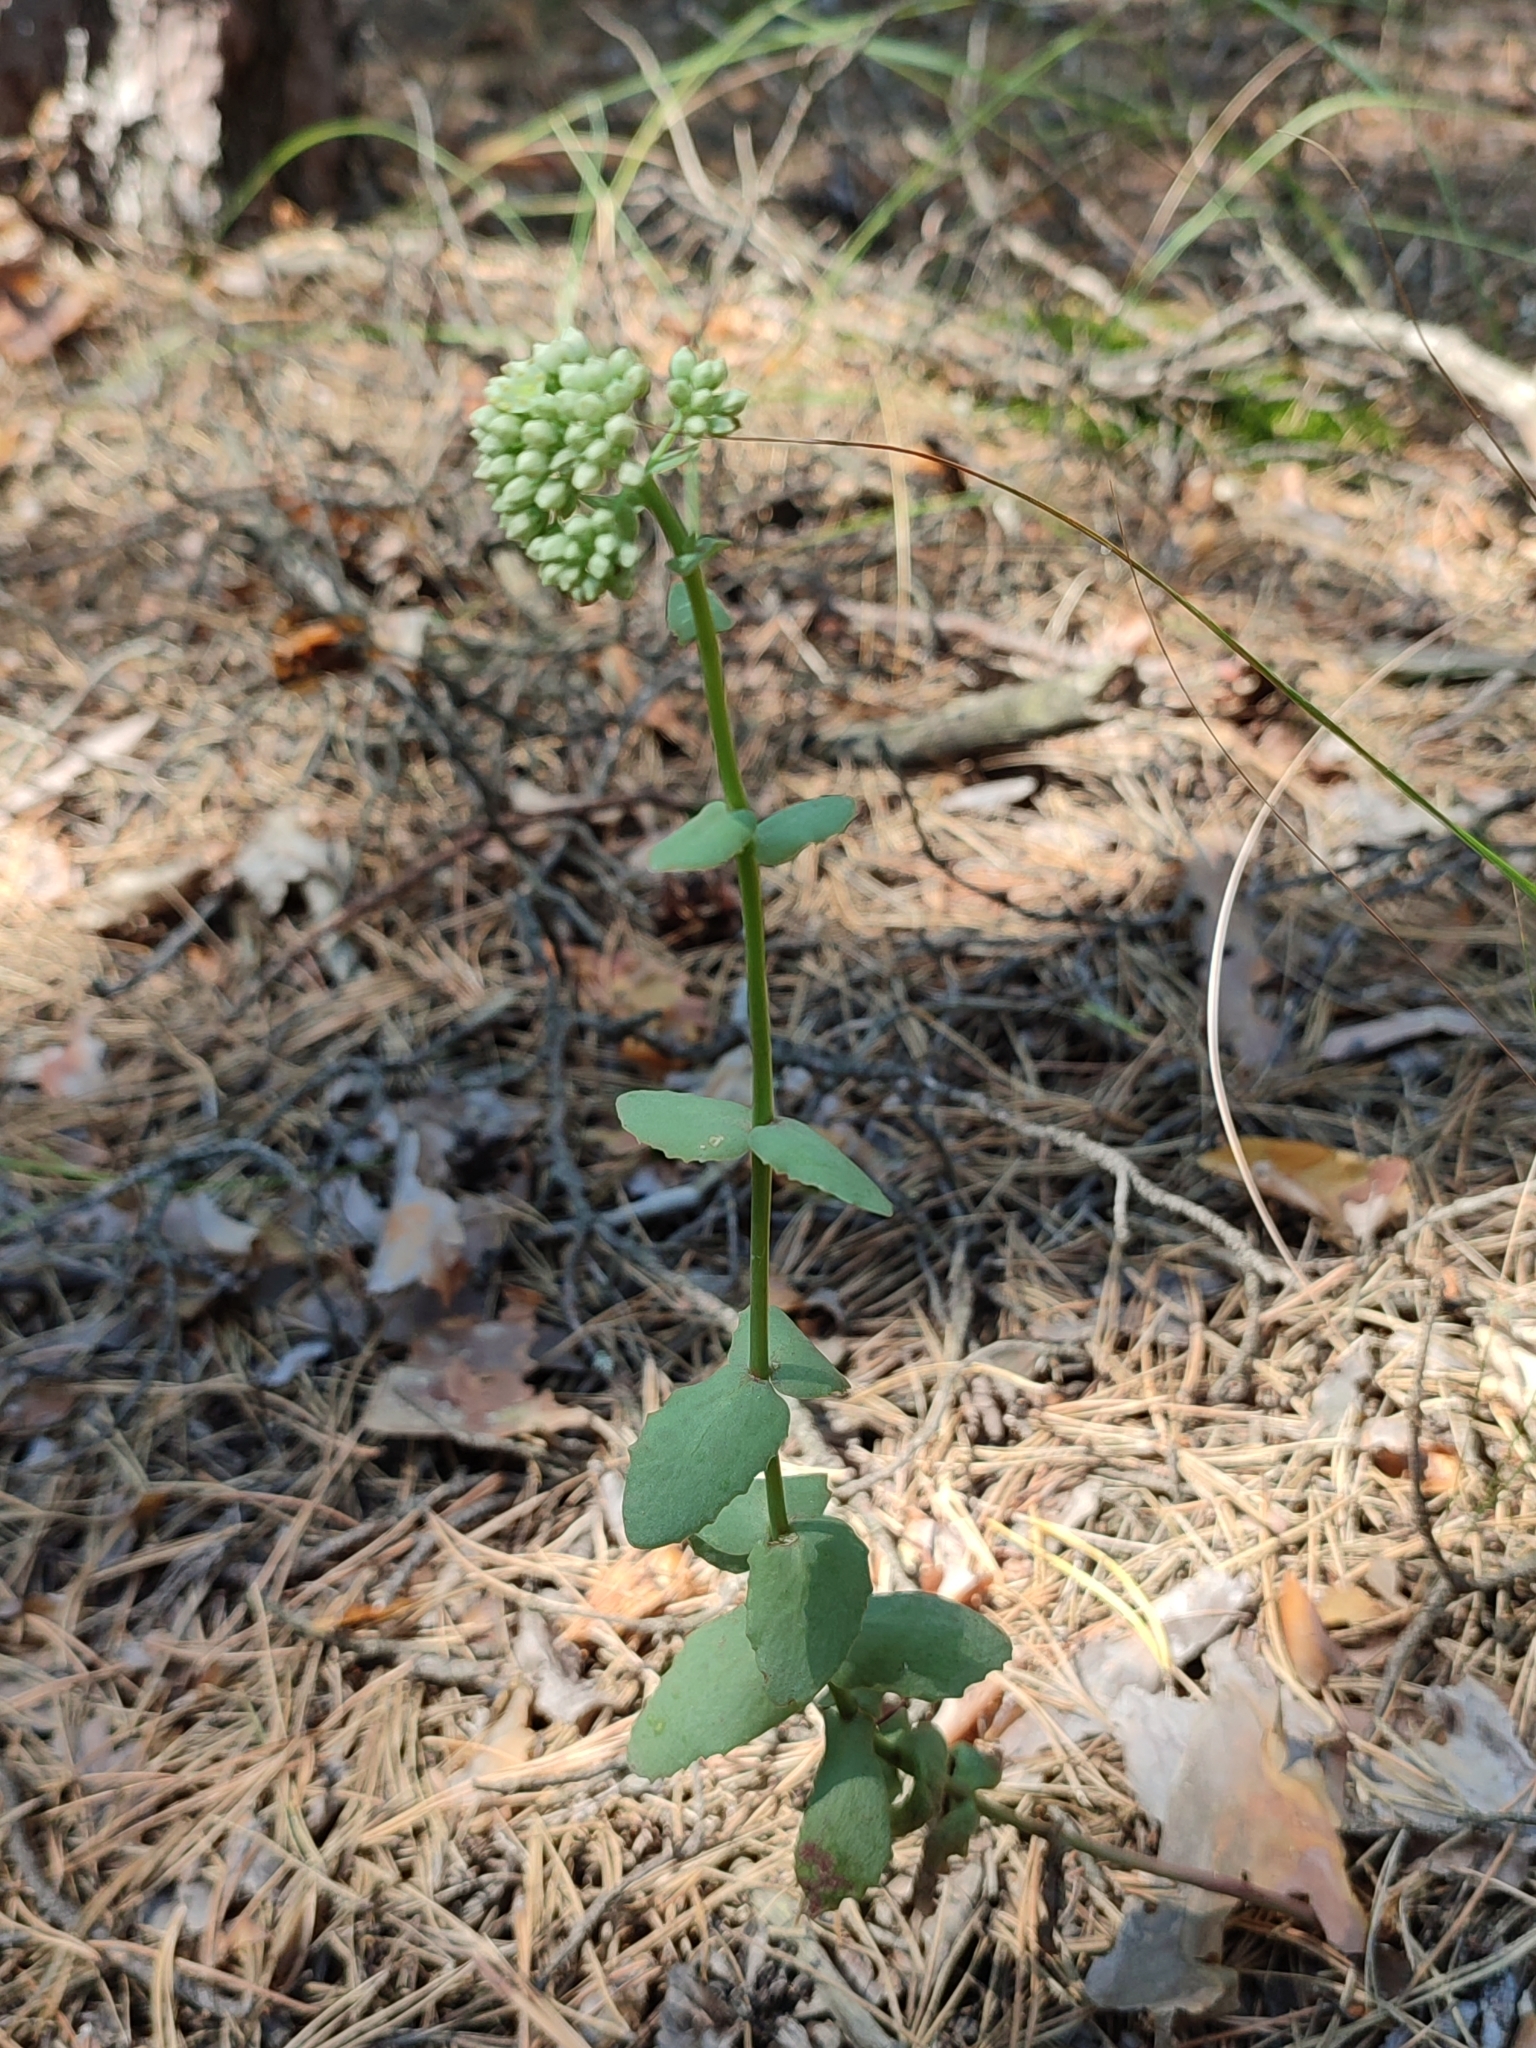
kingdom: Plantae
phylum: Tracheophyta
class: Magnoliopsida
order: Saxifragales
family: Crassulaceae
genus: Hylotelephium
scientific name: Hylotelephium maximum
